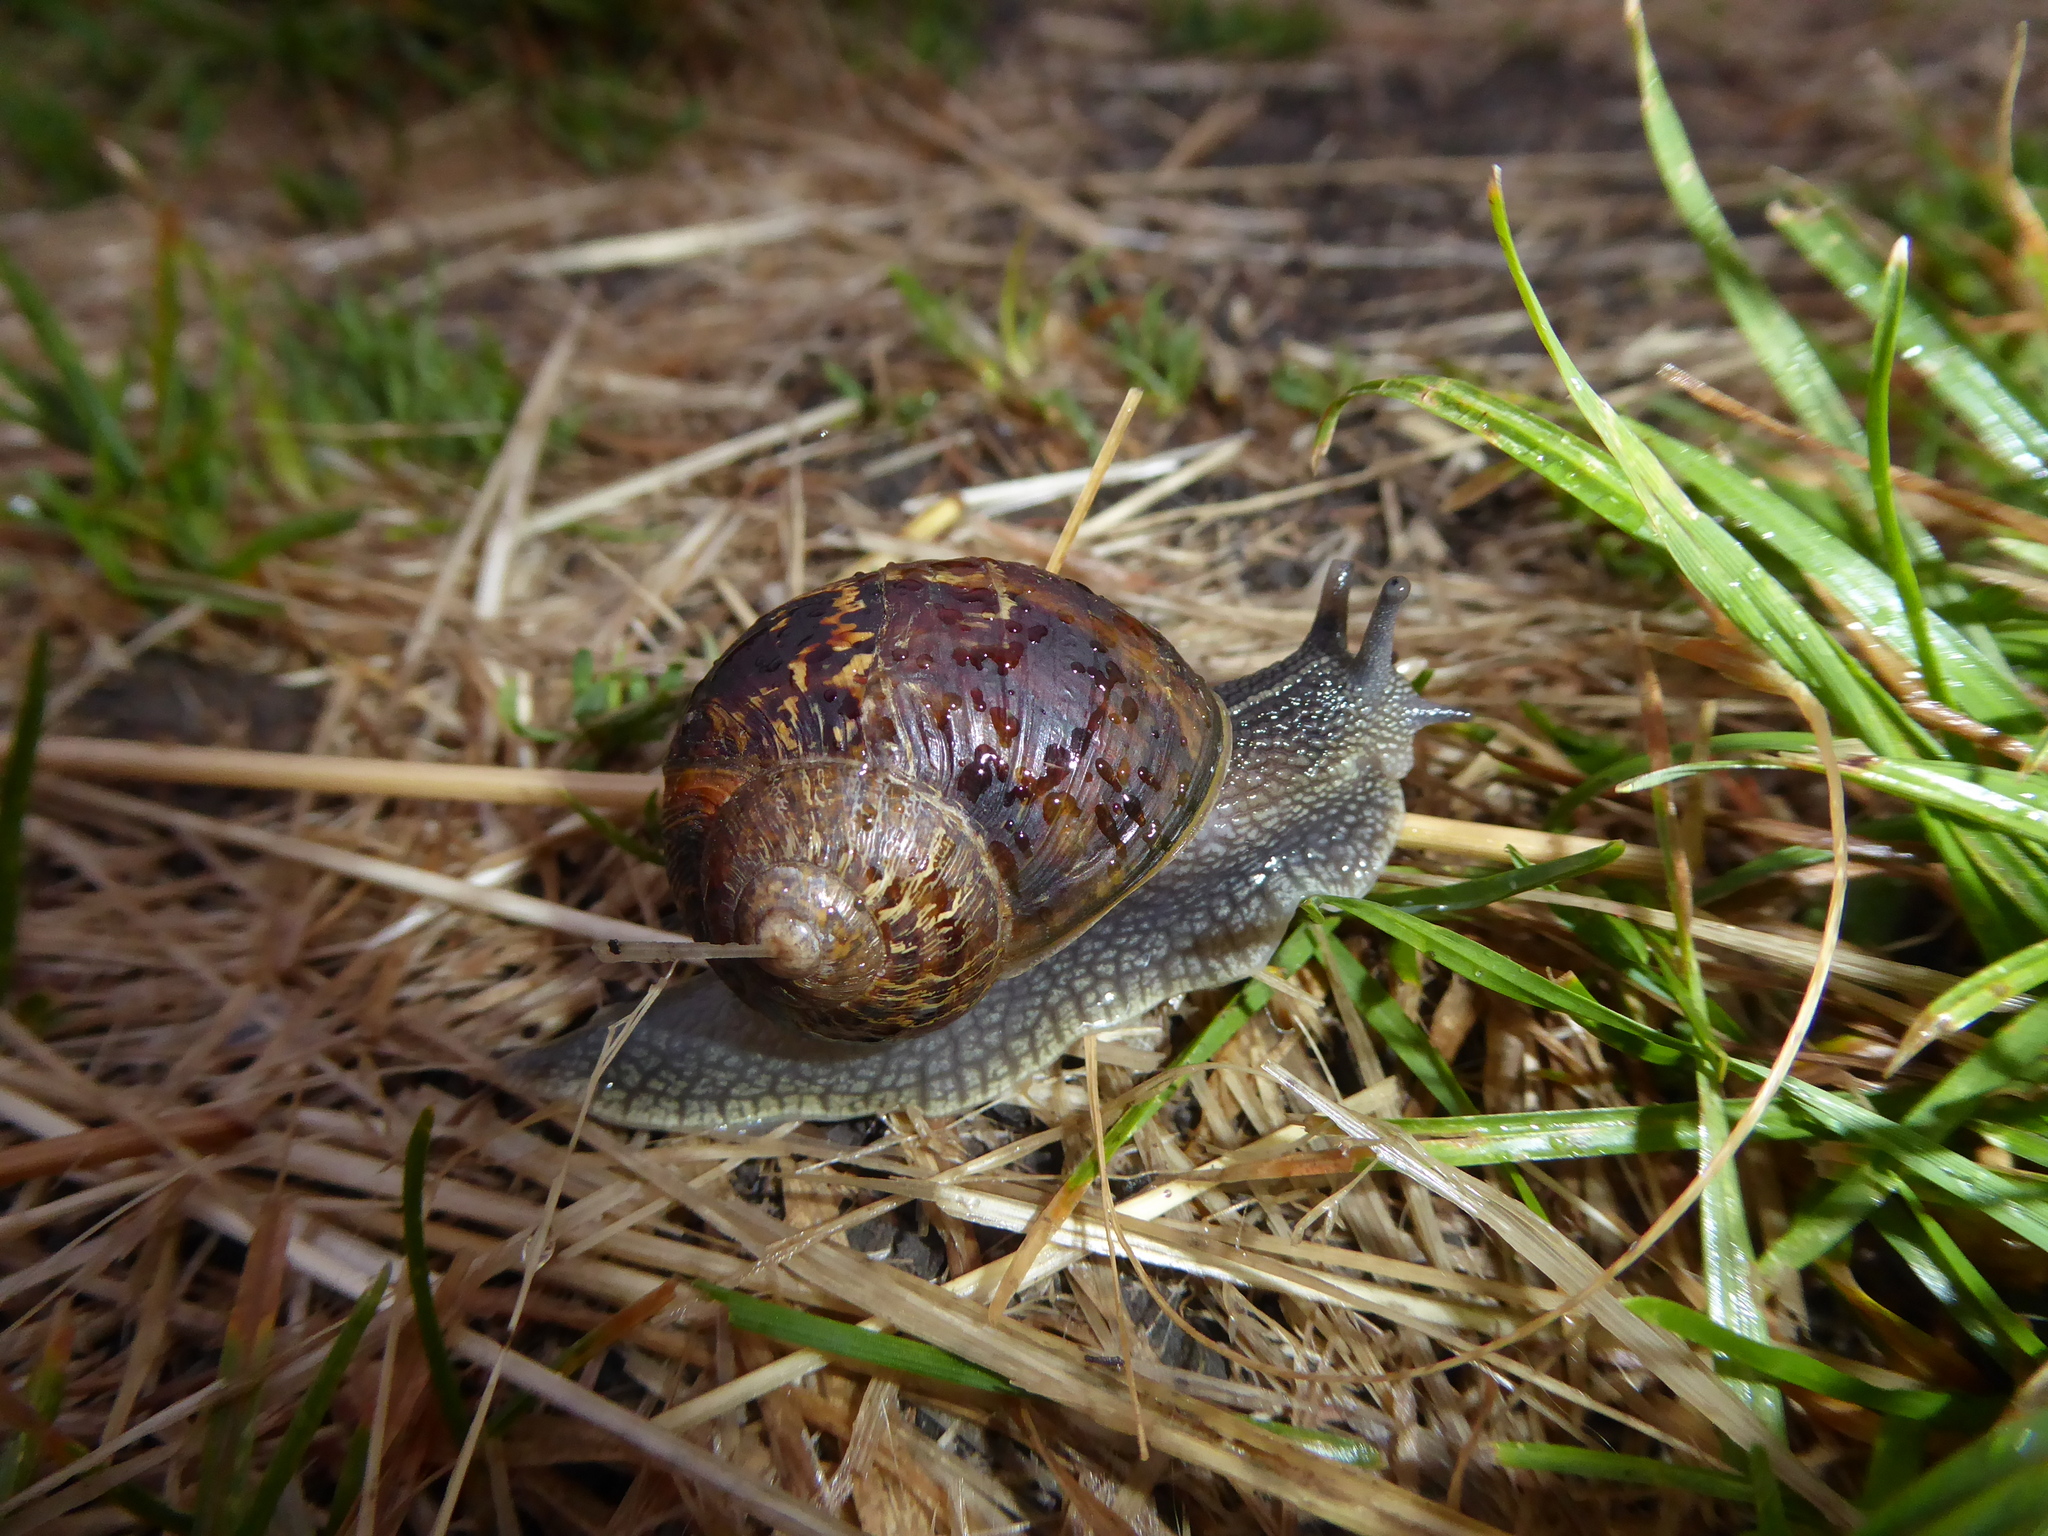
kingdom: Animalia
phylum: Mollusca
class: Gastropoda
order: Stylommatophora
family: Helicidae
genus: Cornu
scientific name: Cornu aspersum
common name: Brown garden snail
